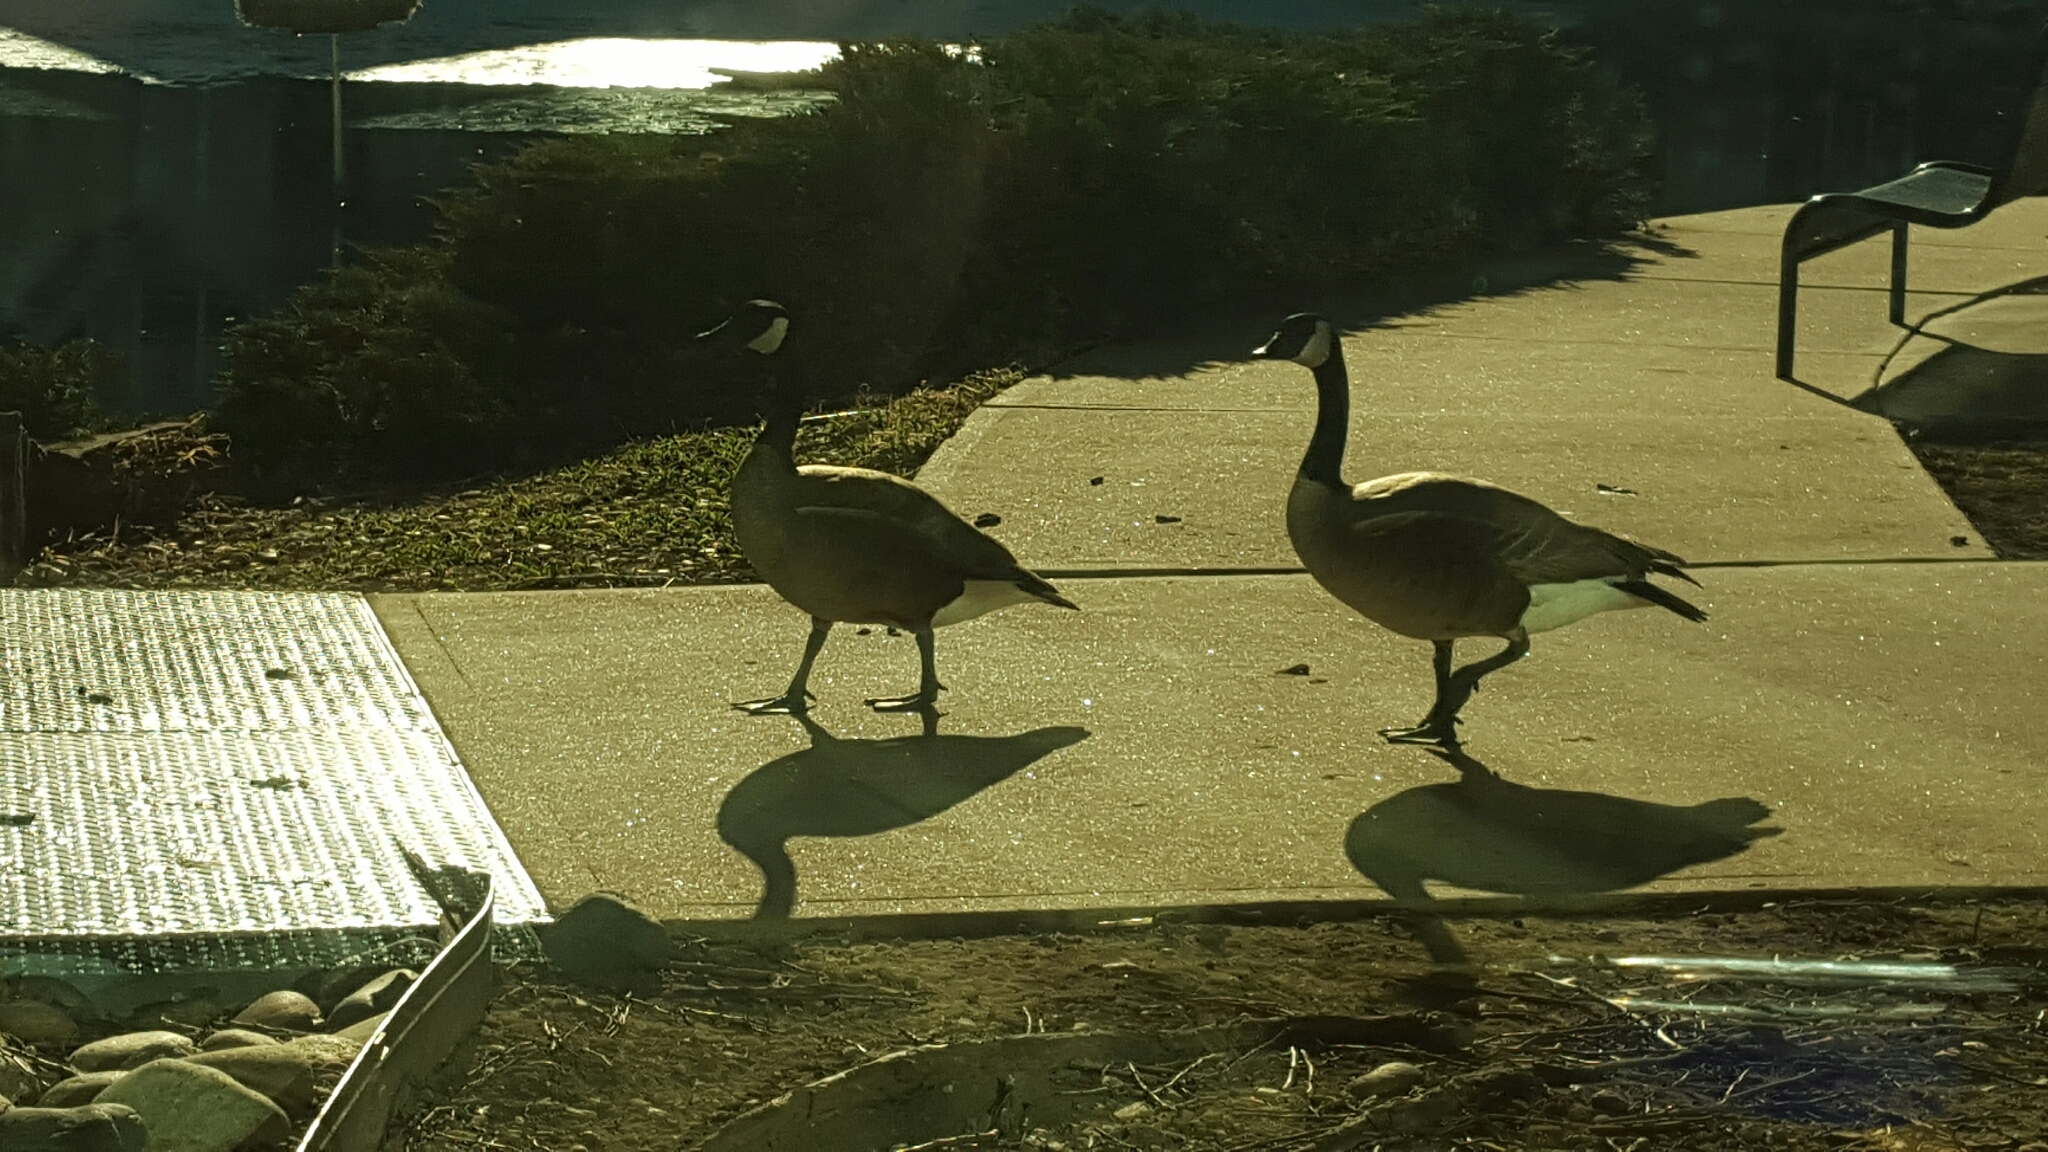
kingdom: Animalia
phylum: Chordata
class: Aves
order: Anseriformes
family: Anatidae
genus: Branta
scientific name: Branta canadensis
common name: Canada goose
